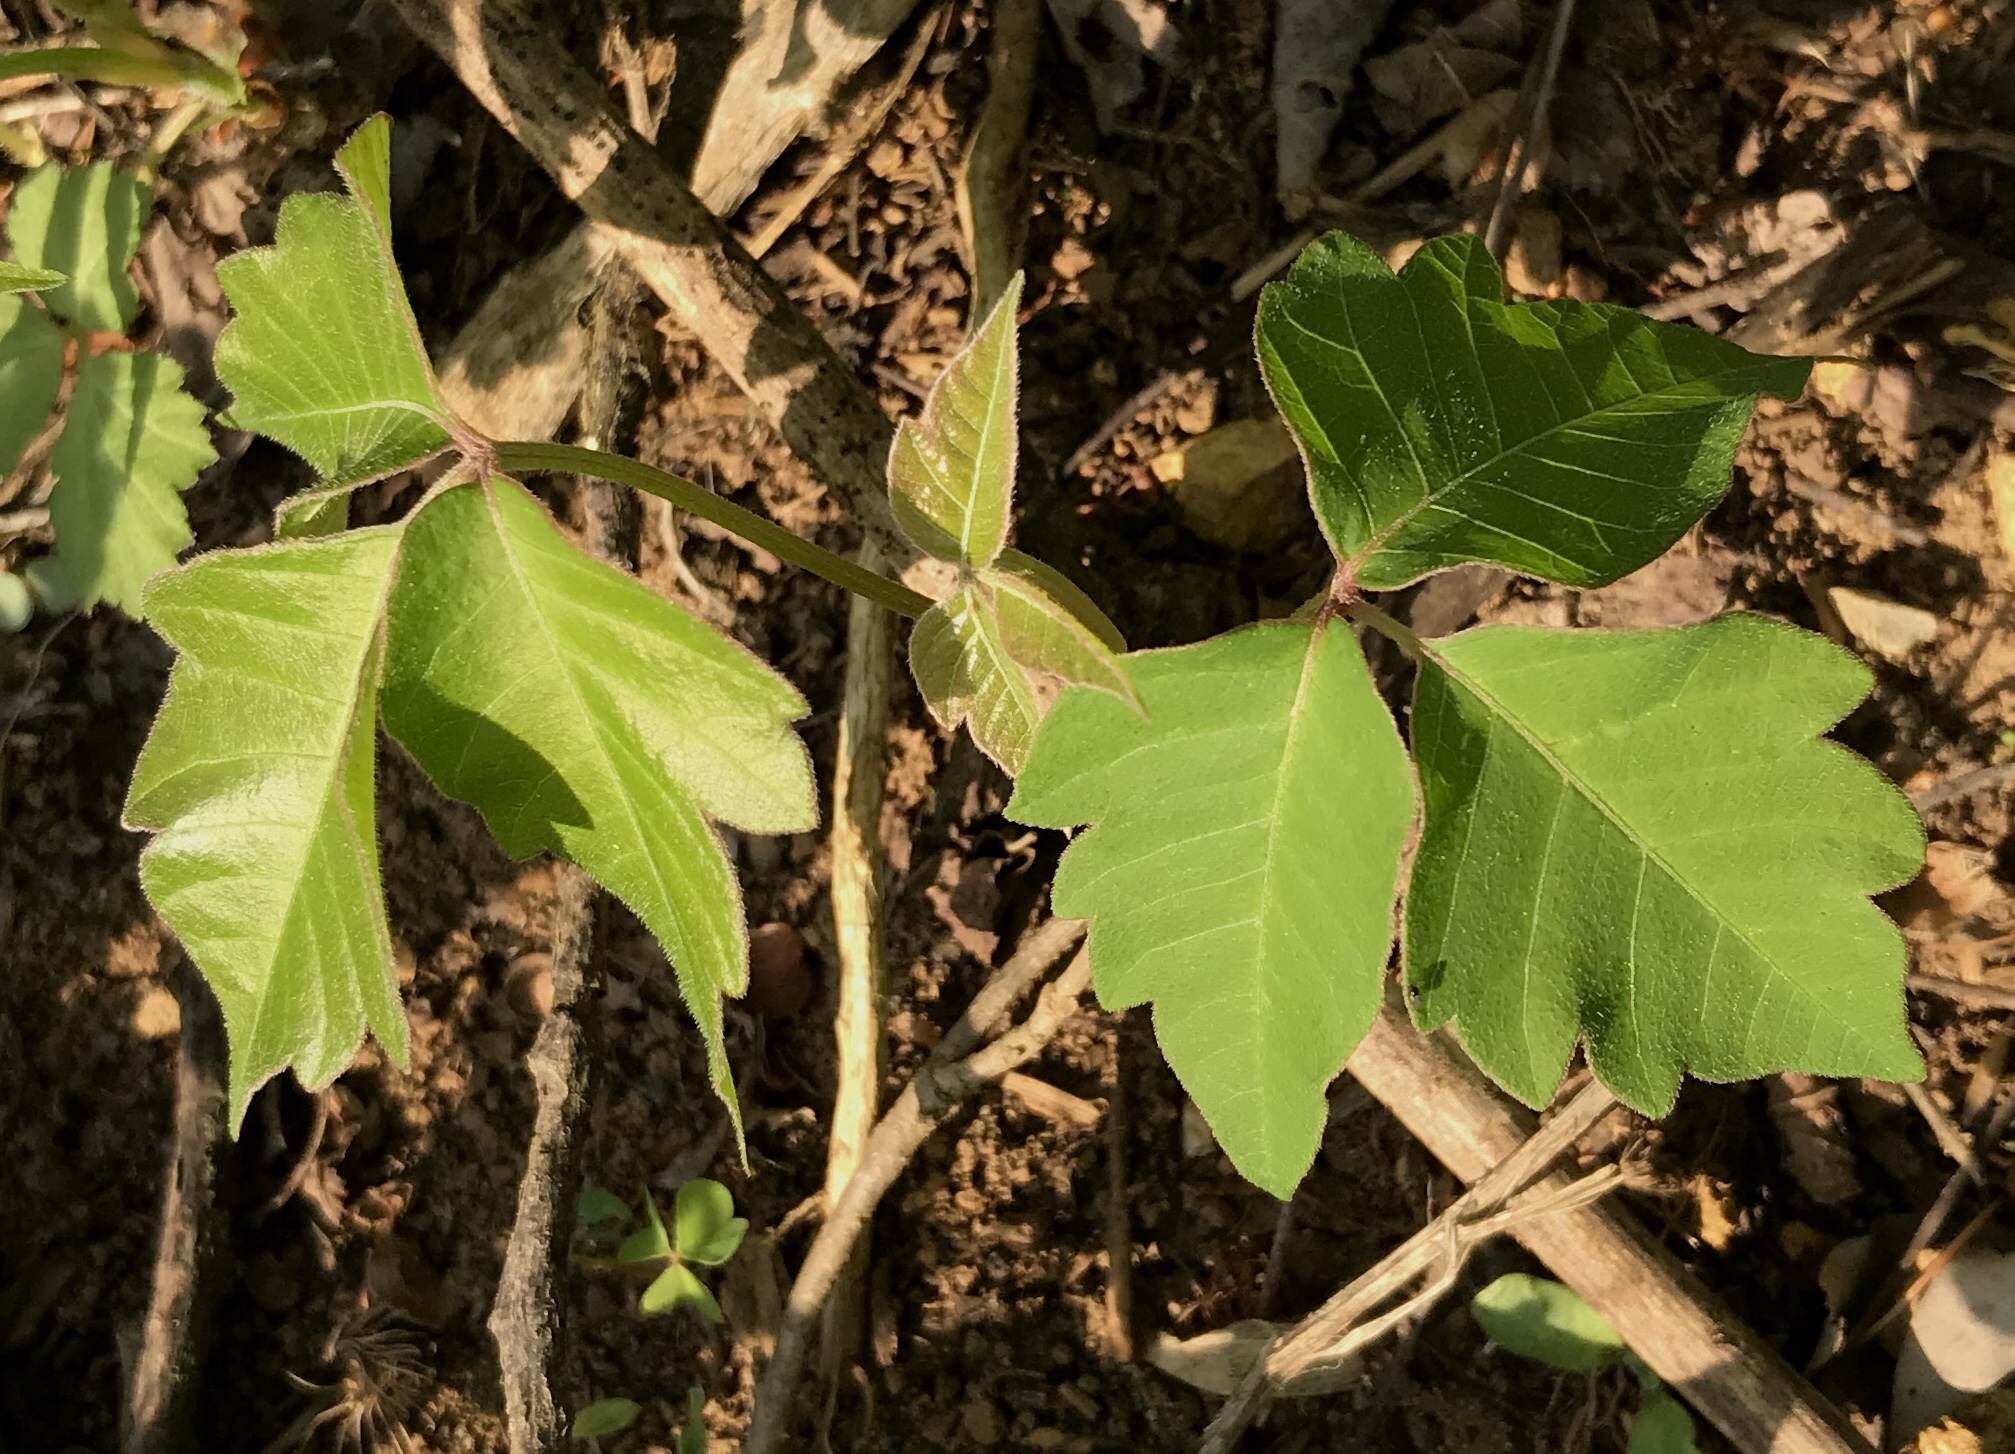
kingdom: Plantae
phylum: Tracheophyta
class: Magnoliopsida
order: Sapindales
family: Anacardiaceae
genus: Toxicodendron
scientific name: Toxicodendron radicans
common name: Poison ivy
